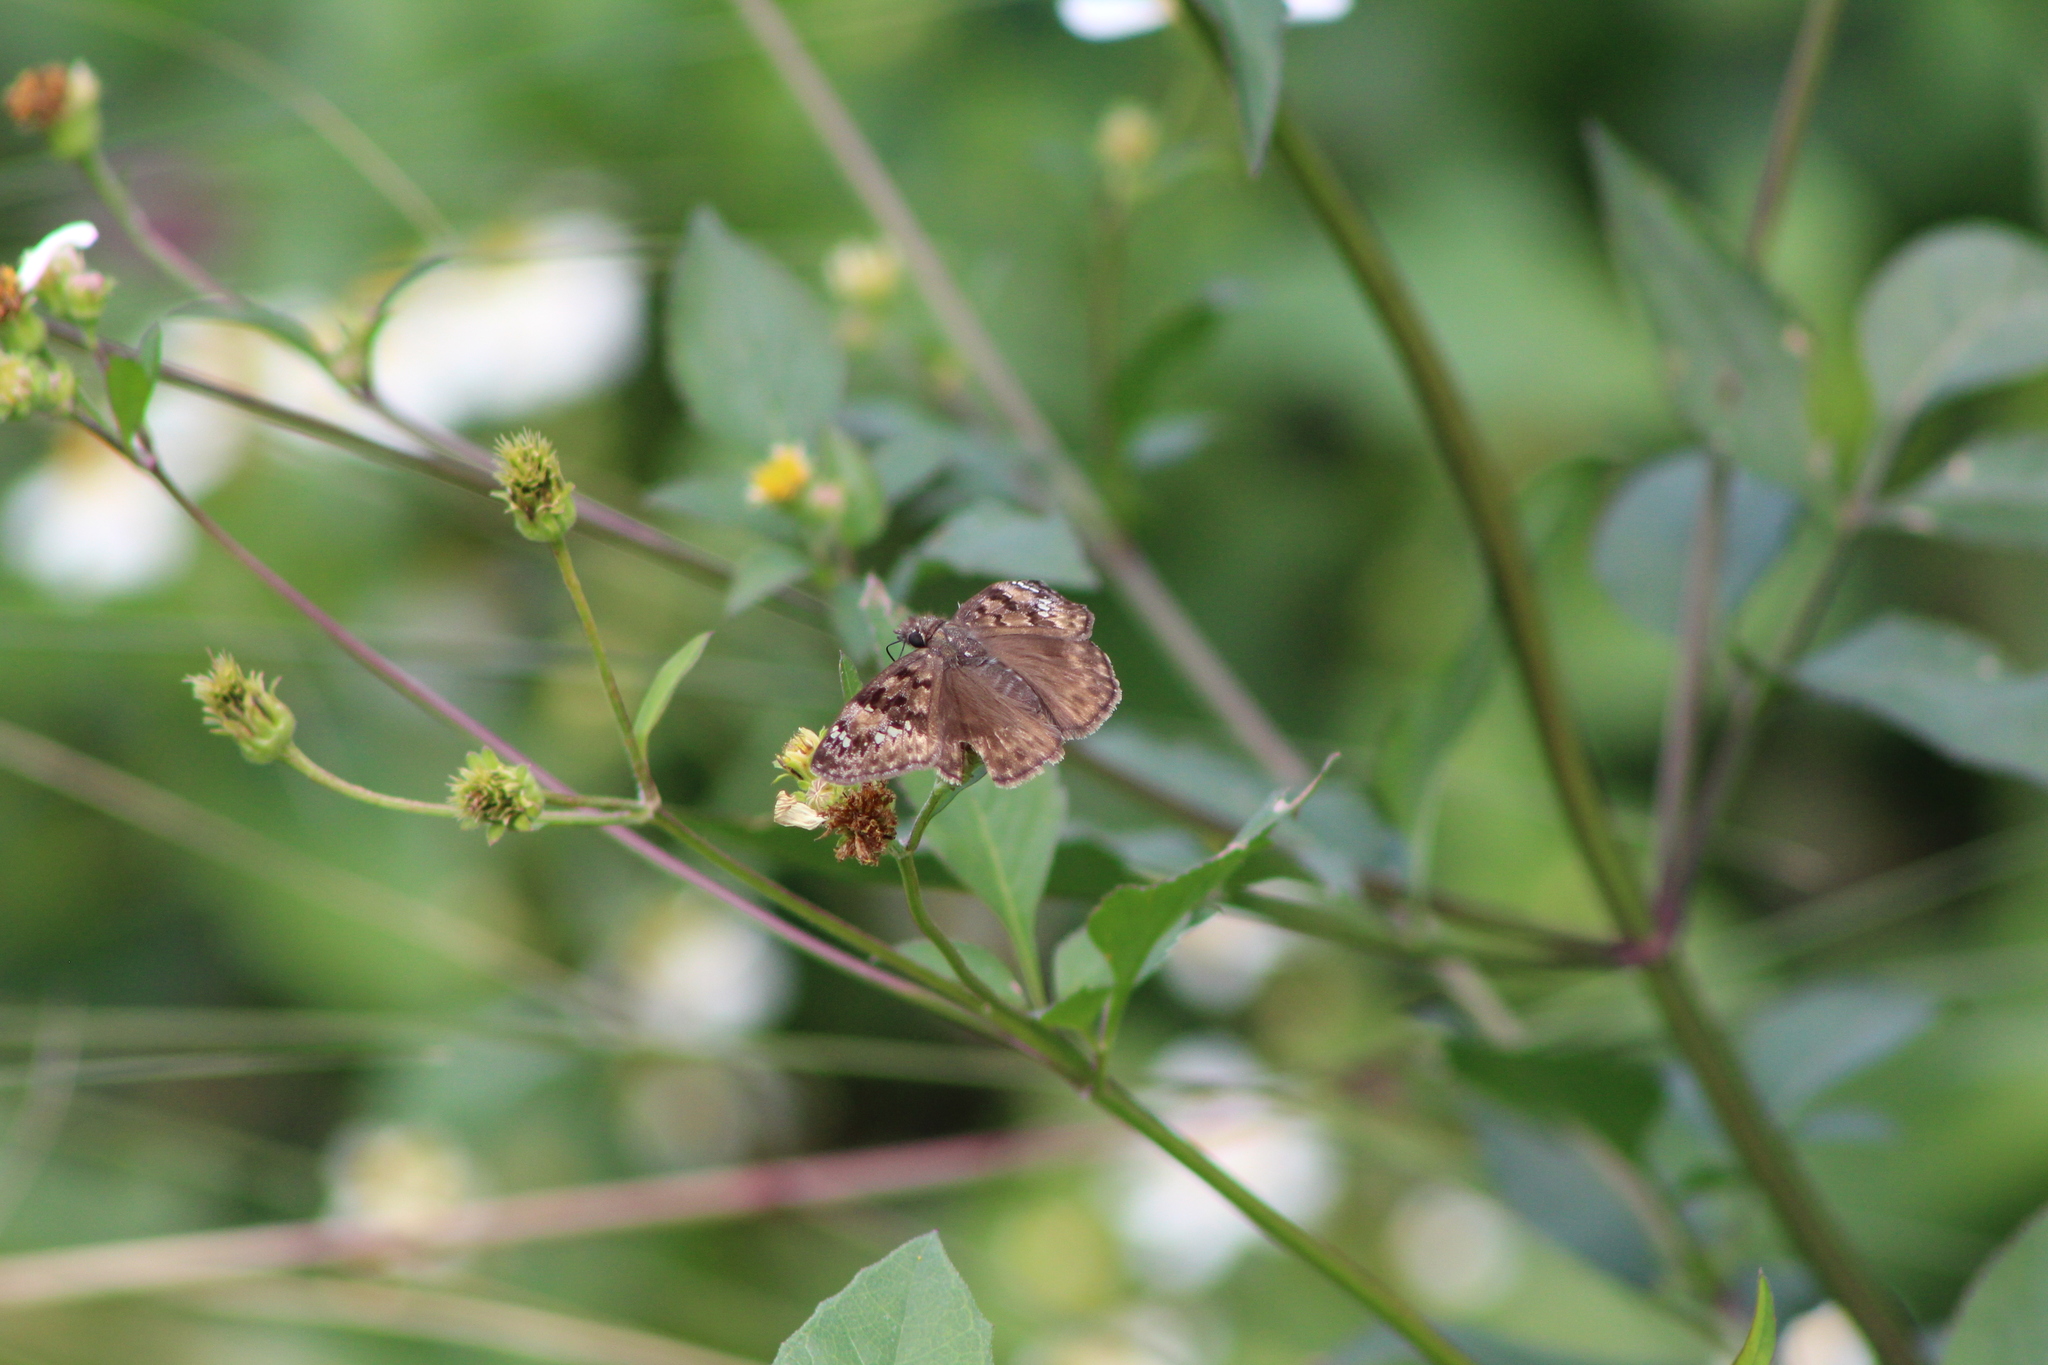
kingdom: Animalia
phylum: Arthropoda
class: Insecta
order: Lepidoptera
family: Hesperiidae
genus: Erynnis
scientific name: Erynnis horatius
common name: Horace's duskywing
